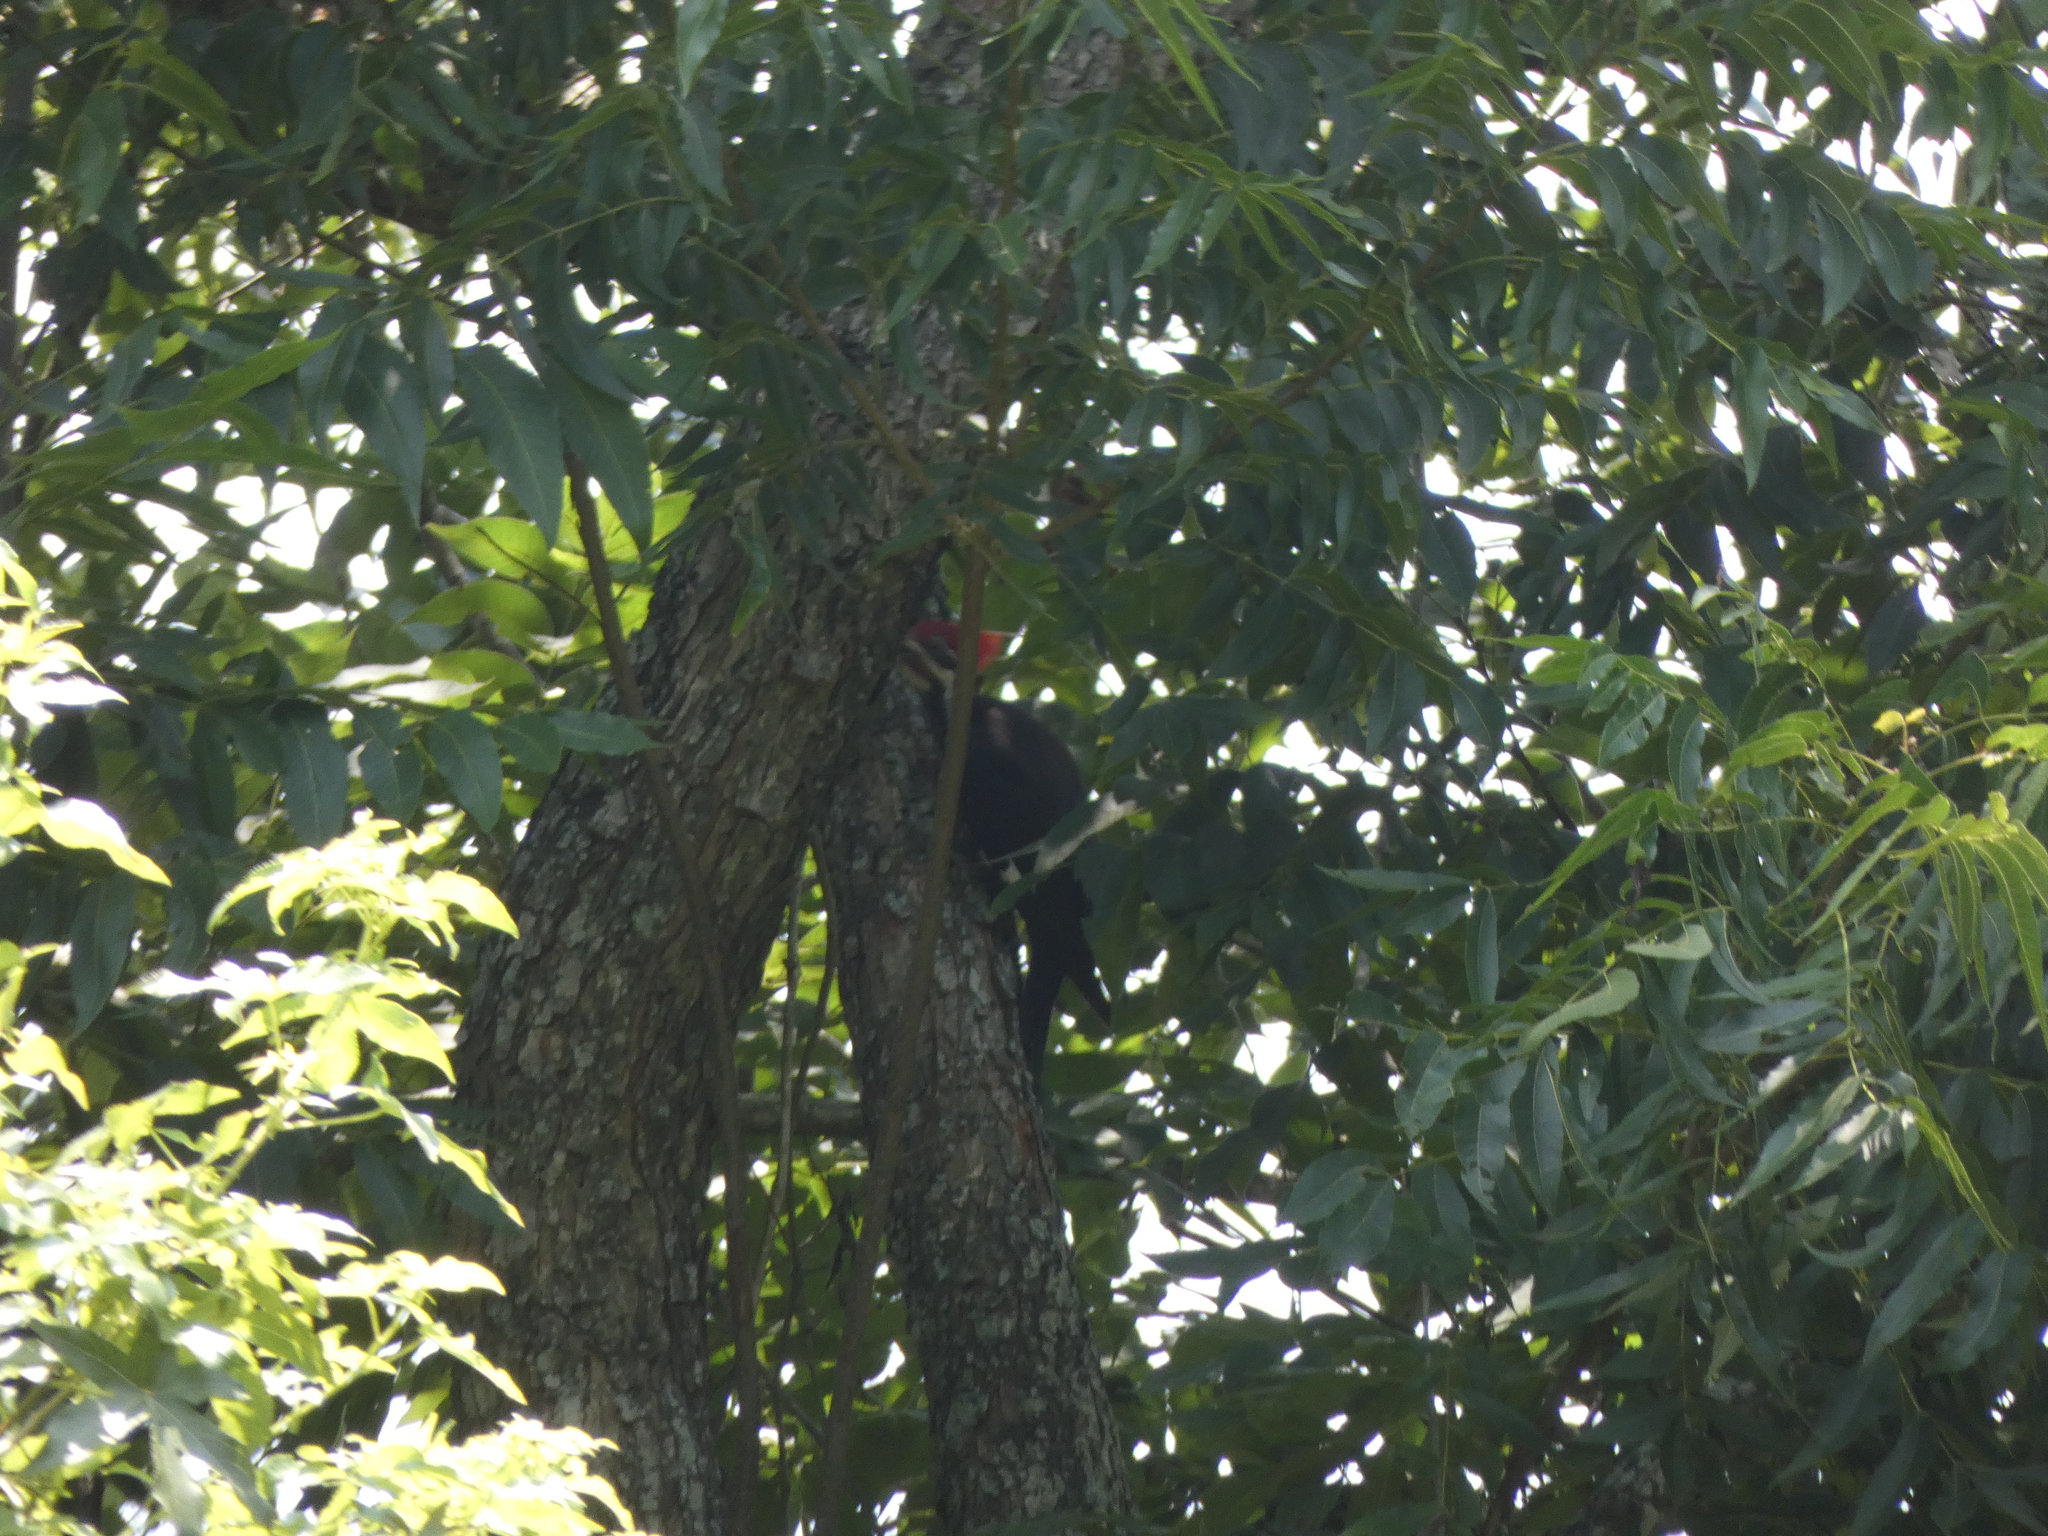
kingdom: Animalia
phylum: Chordata
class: Aves
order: Piciformes
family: Picidae
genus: Dryocopus
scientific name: Dryocopus pileatus
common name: Pileated woodpecker
